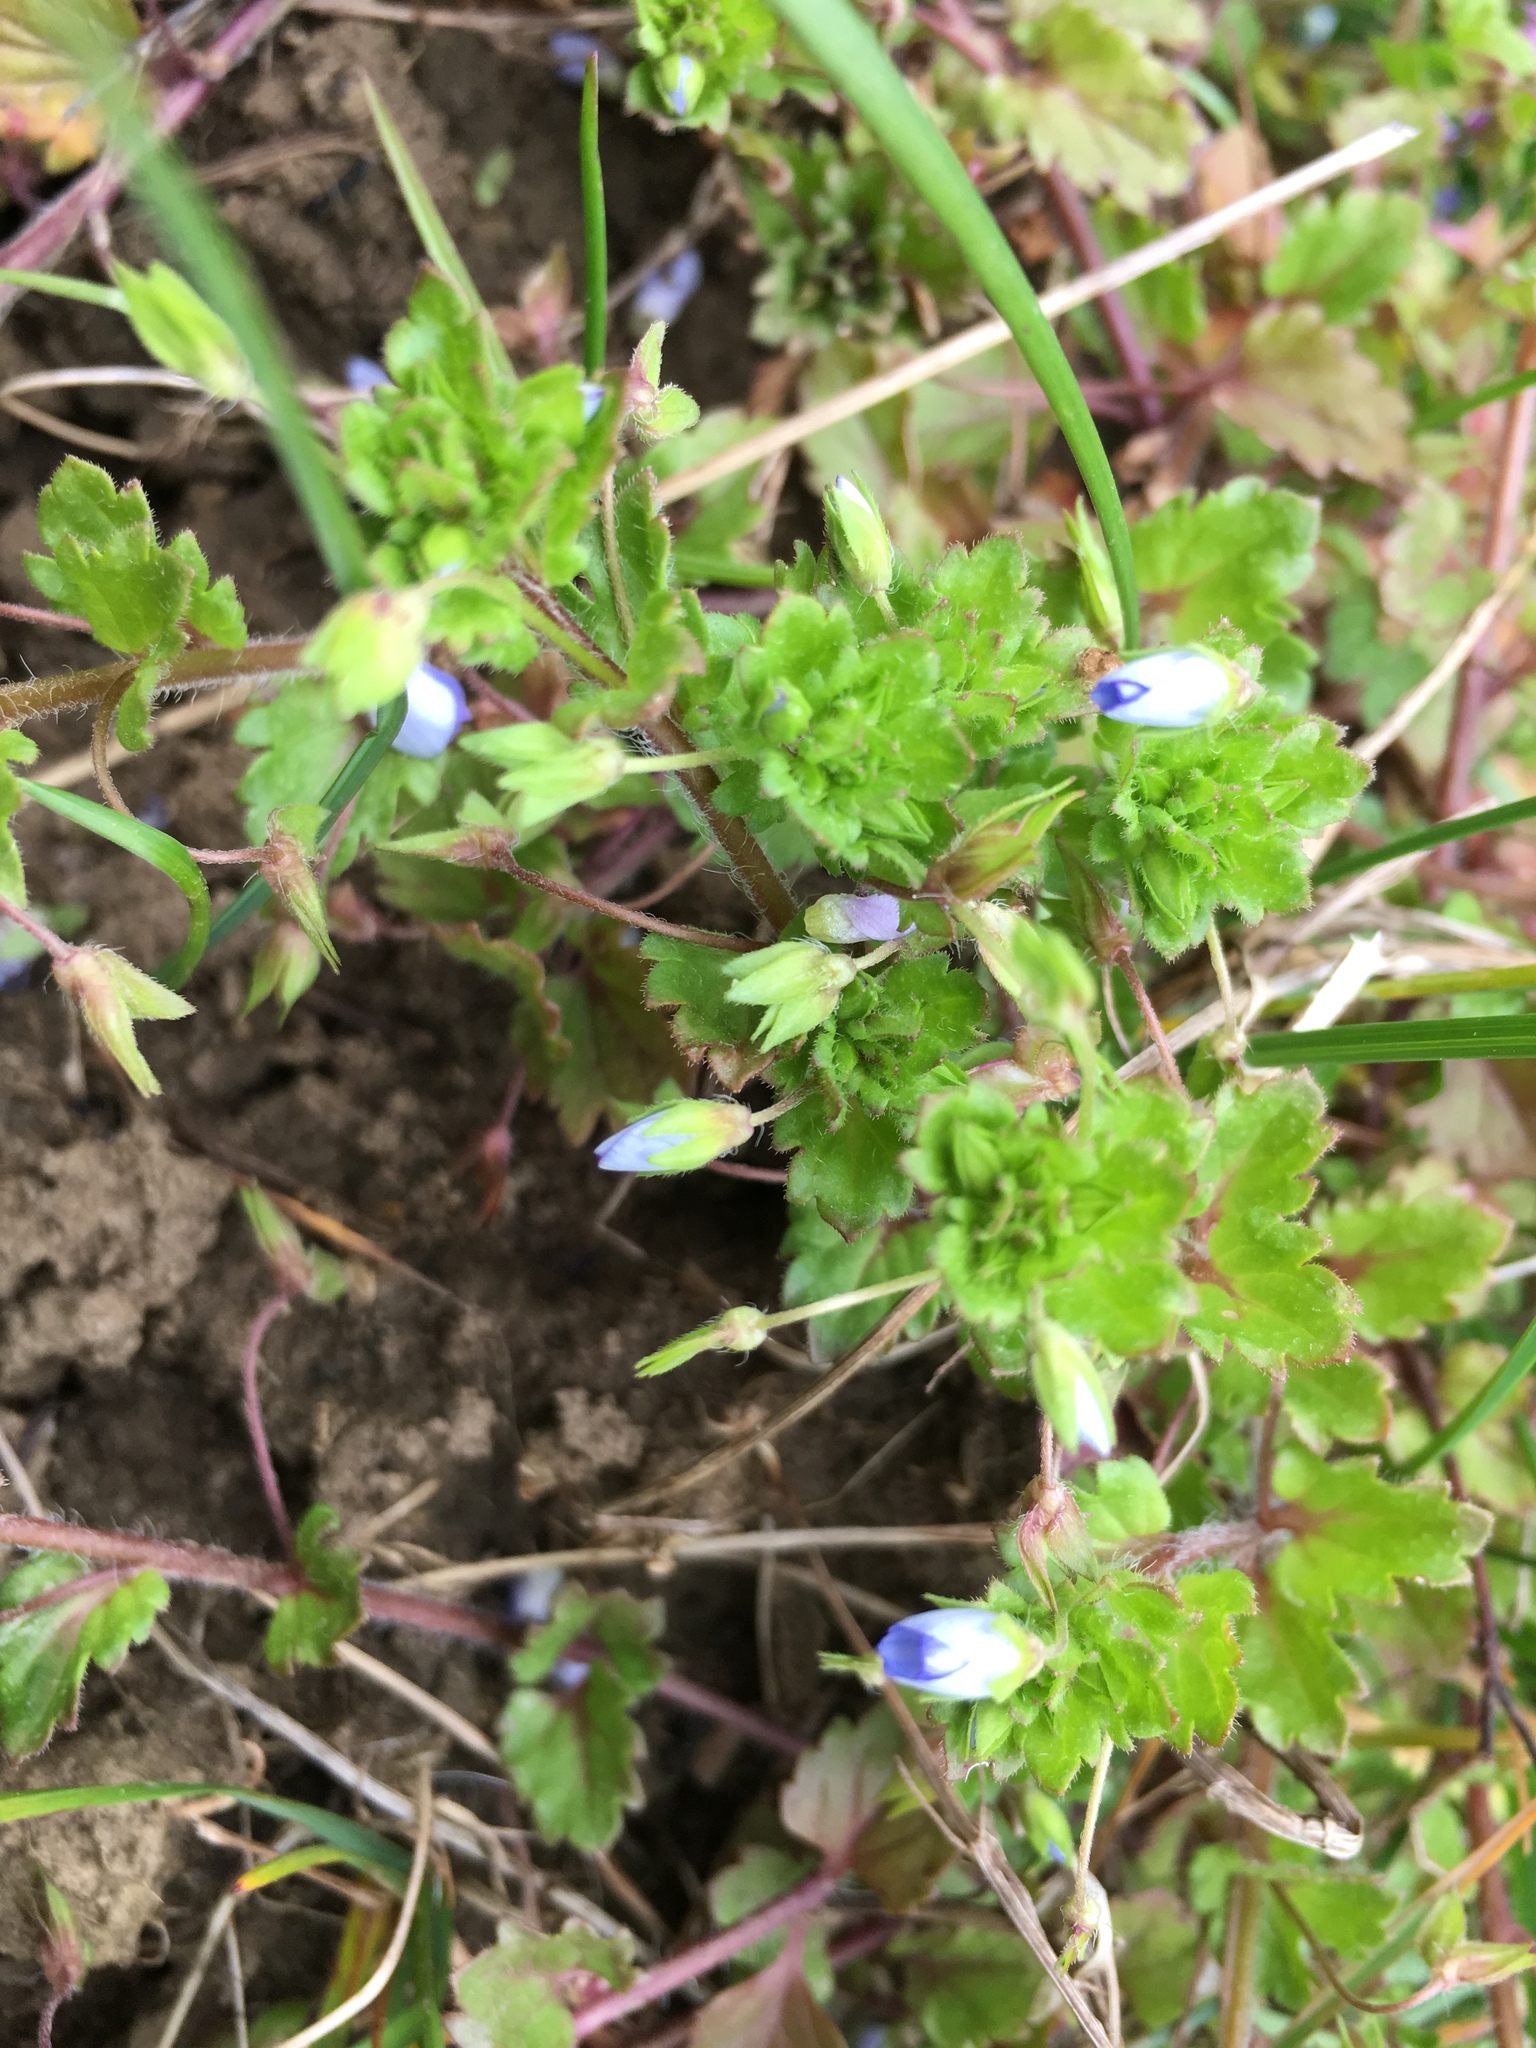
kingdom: Plantae
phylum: Tracheophyta
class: Magnoliopsida
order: Lamiales
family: Plantaginaceae
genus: Veronica
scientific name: Veronica persica
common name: Common field-speedwell
